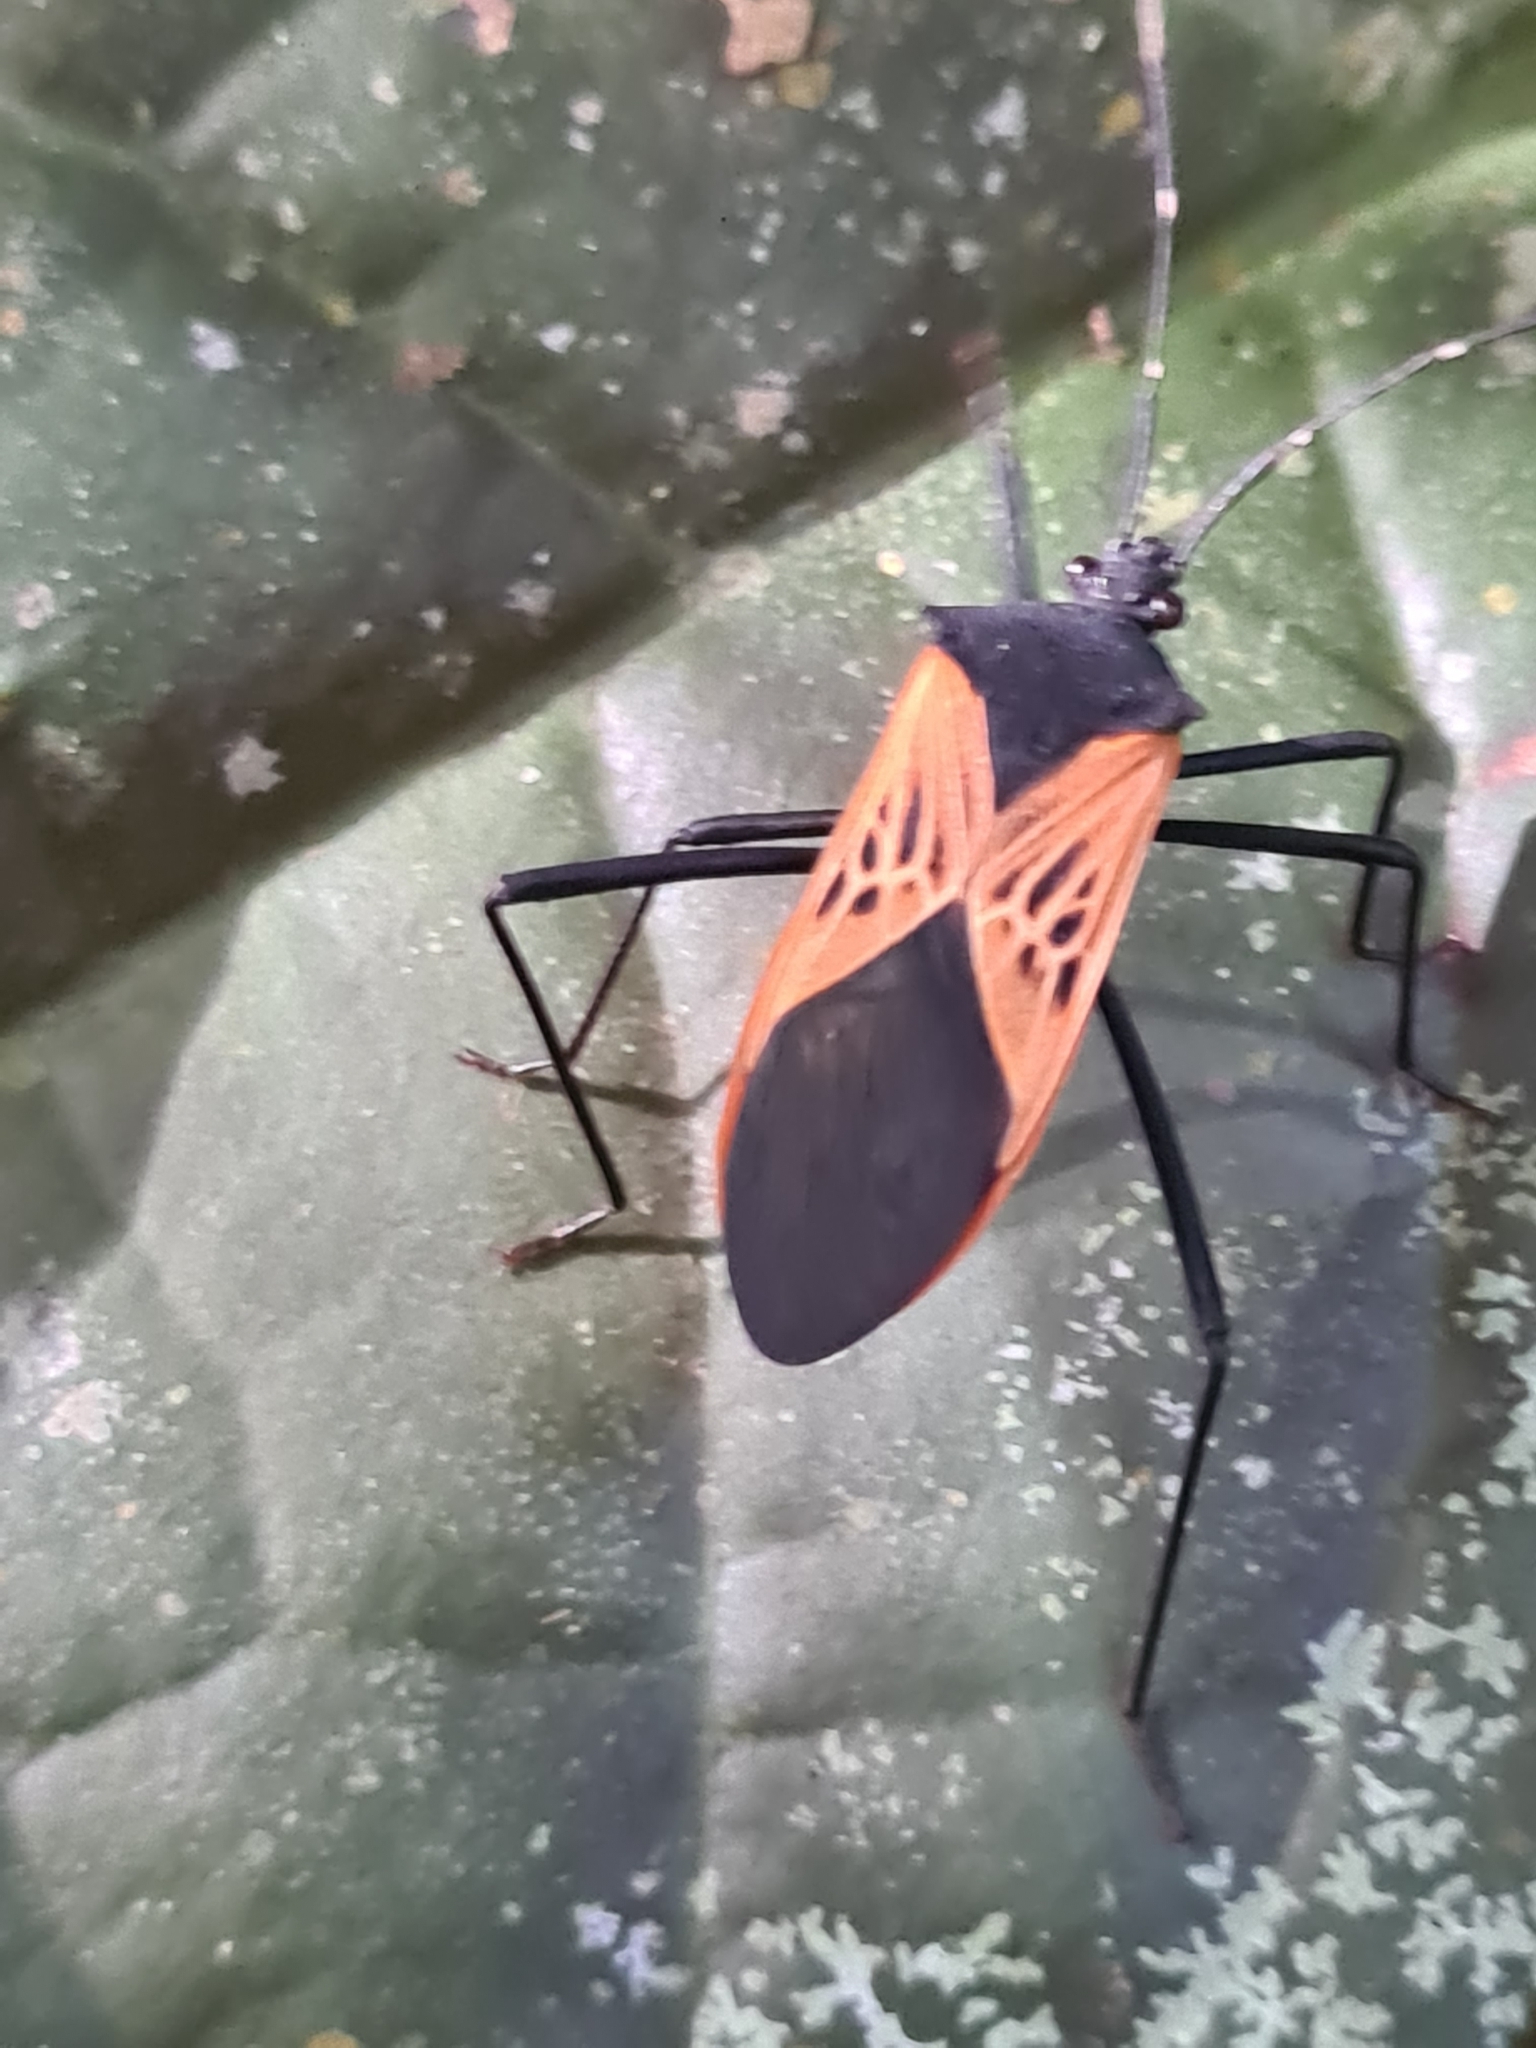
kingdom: Animalia
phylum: Arthropoda
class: Insecta
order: Hemiptera
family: Coreidae
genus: Leptoscelis
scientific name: Leptoscelis limbativentris
